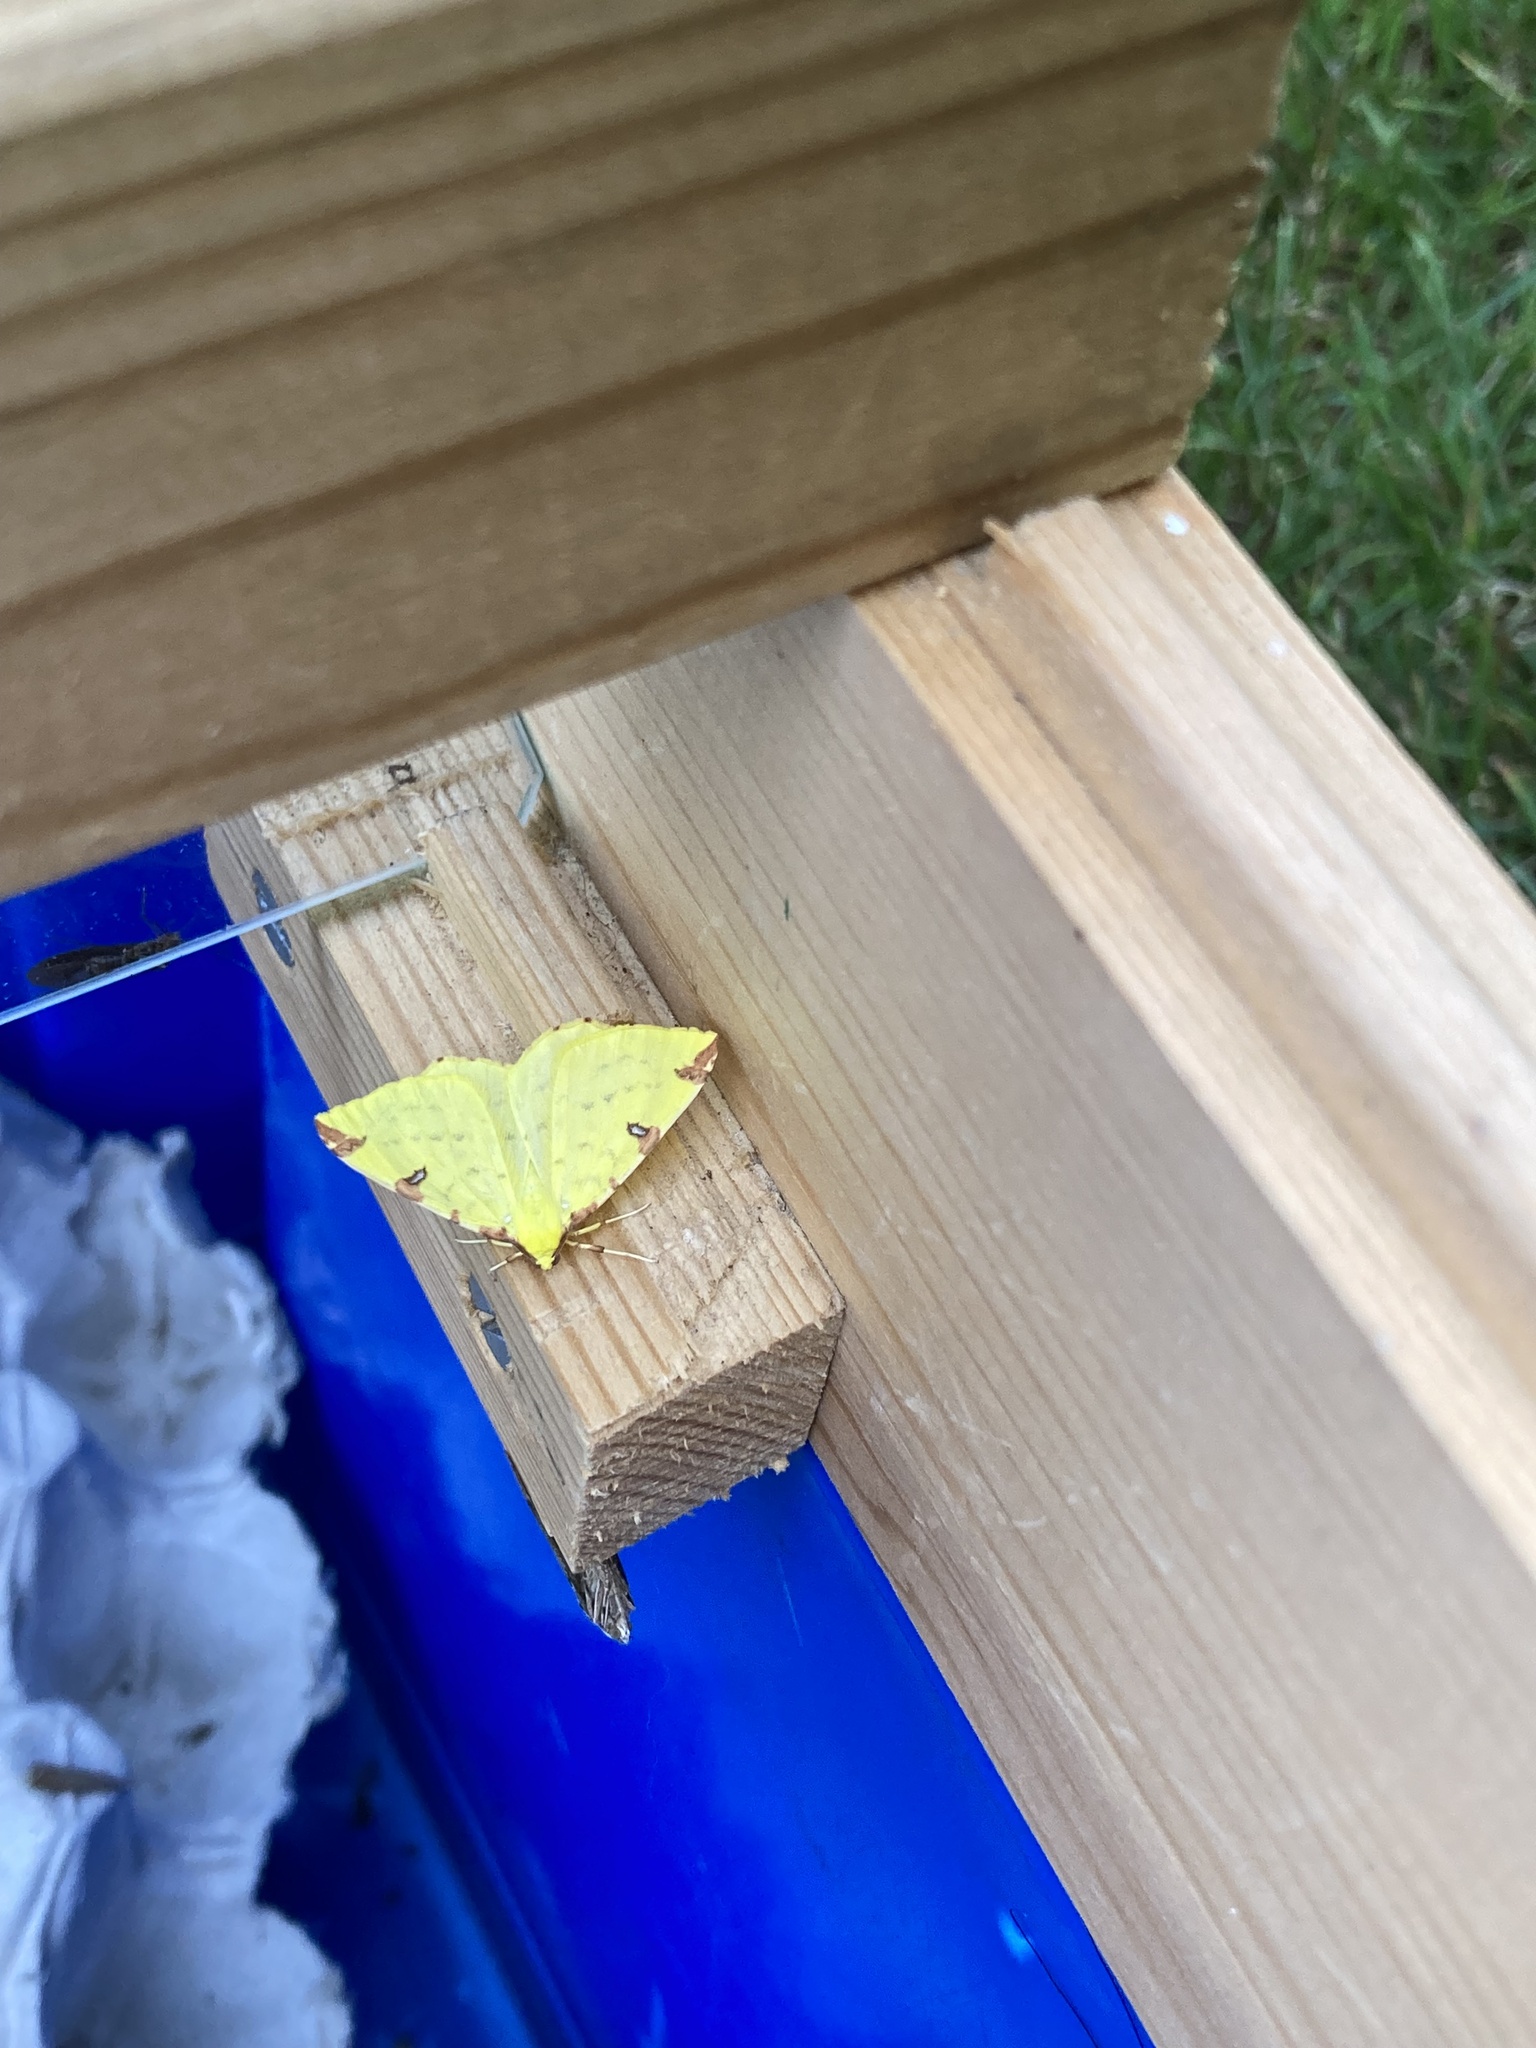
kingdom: Animalia
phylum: Arthropoda
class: Insecta
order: Lepidoptera
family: Geometridae
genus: Opisthograptis
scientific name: Opisthograptis luteolata
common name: Brimstone moth
